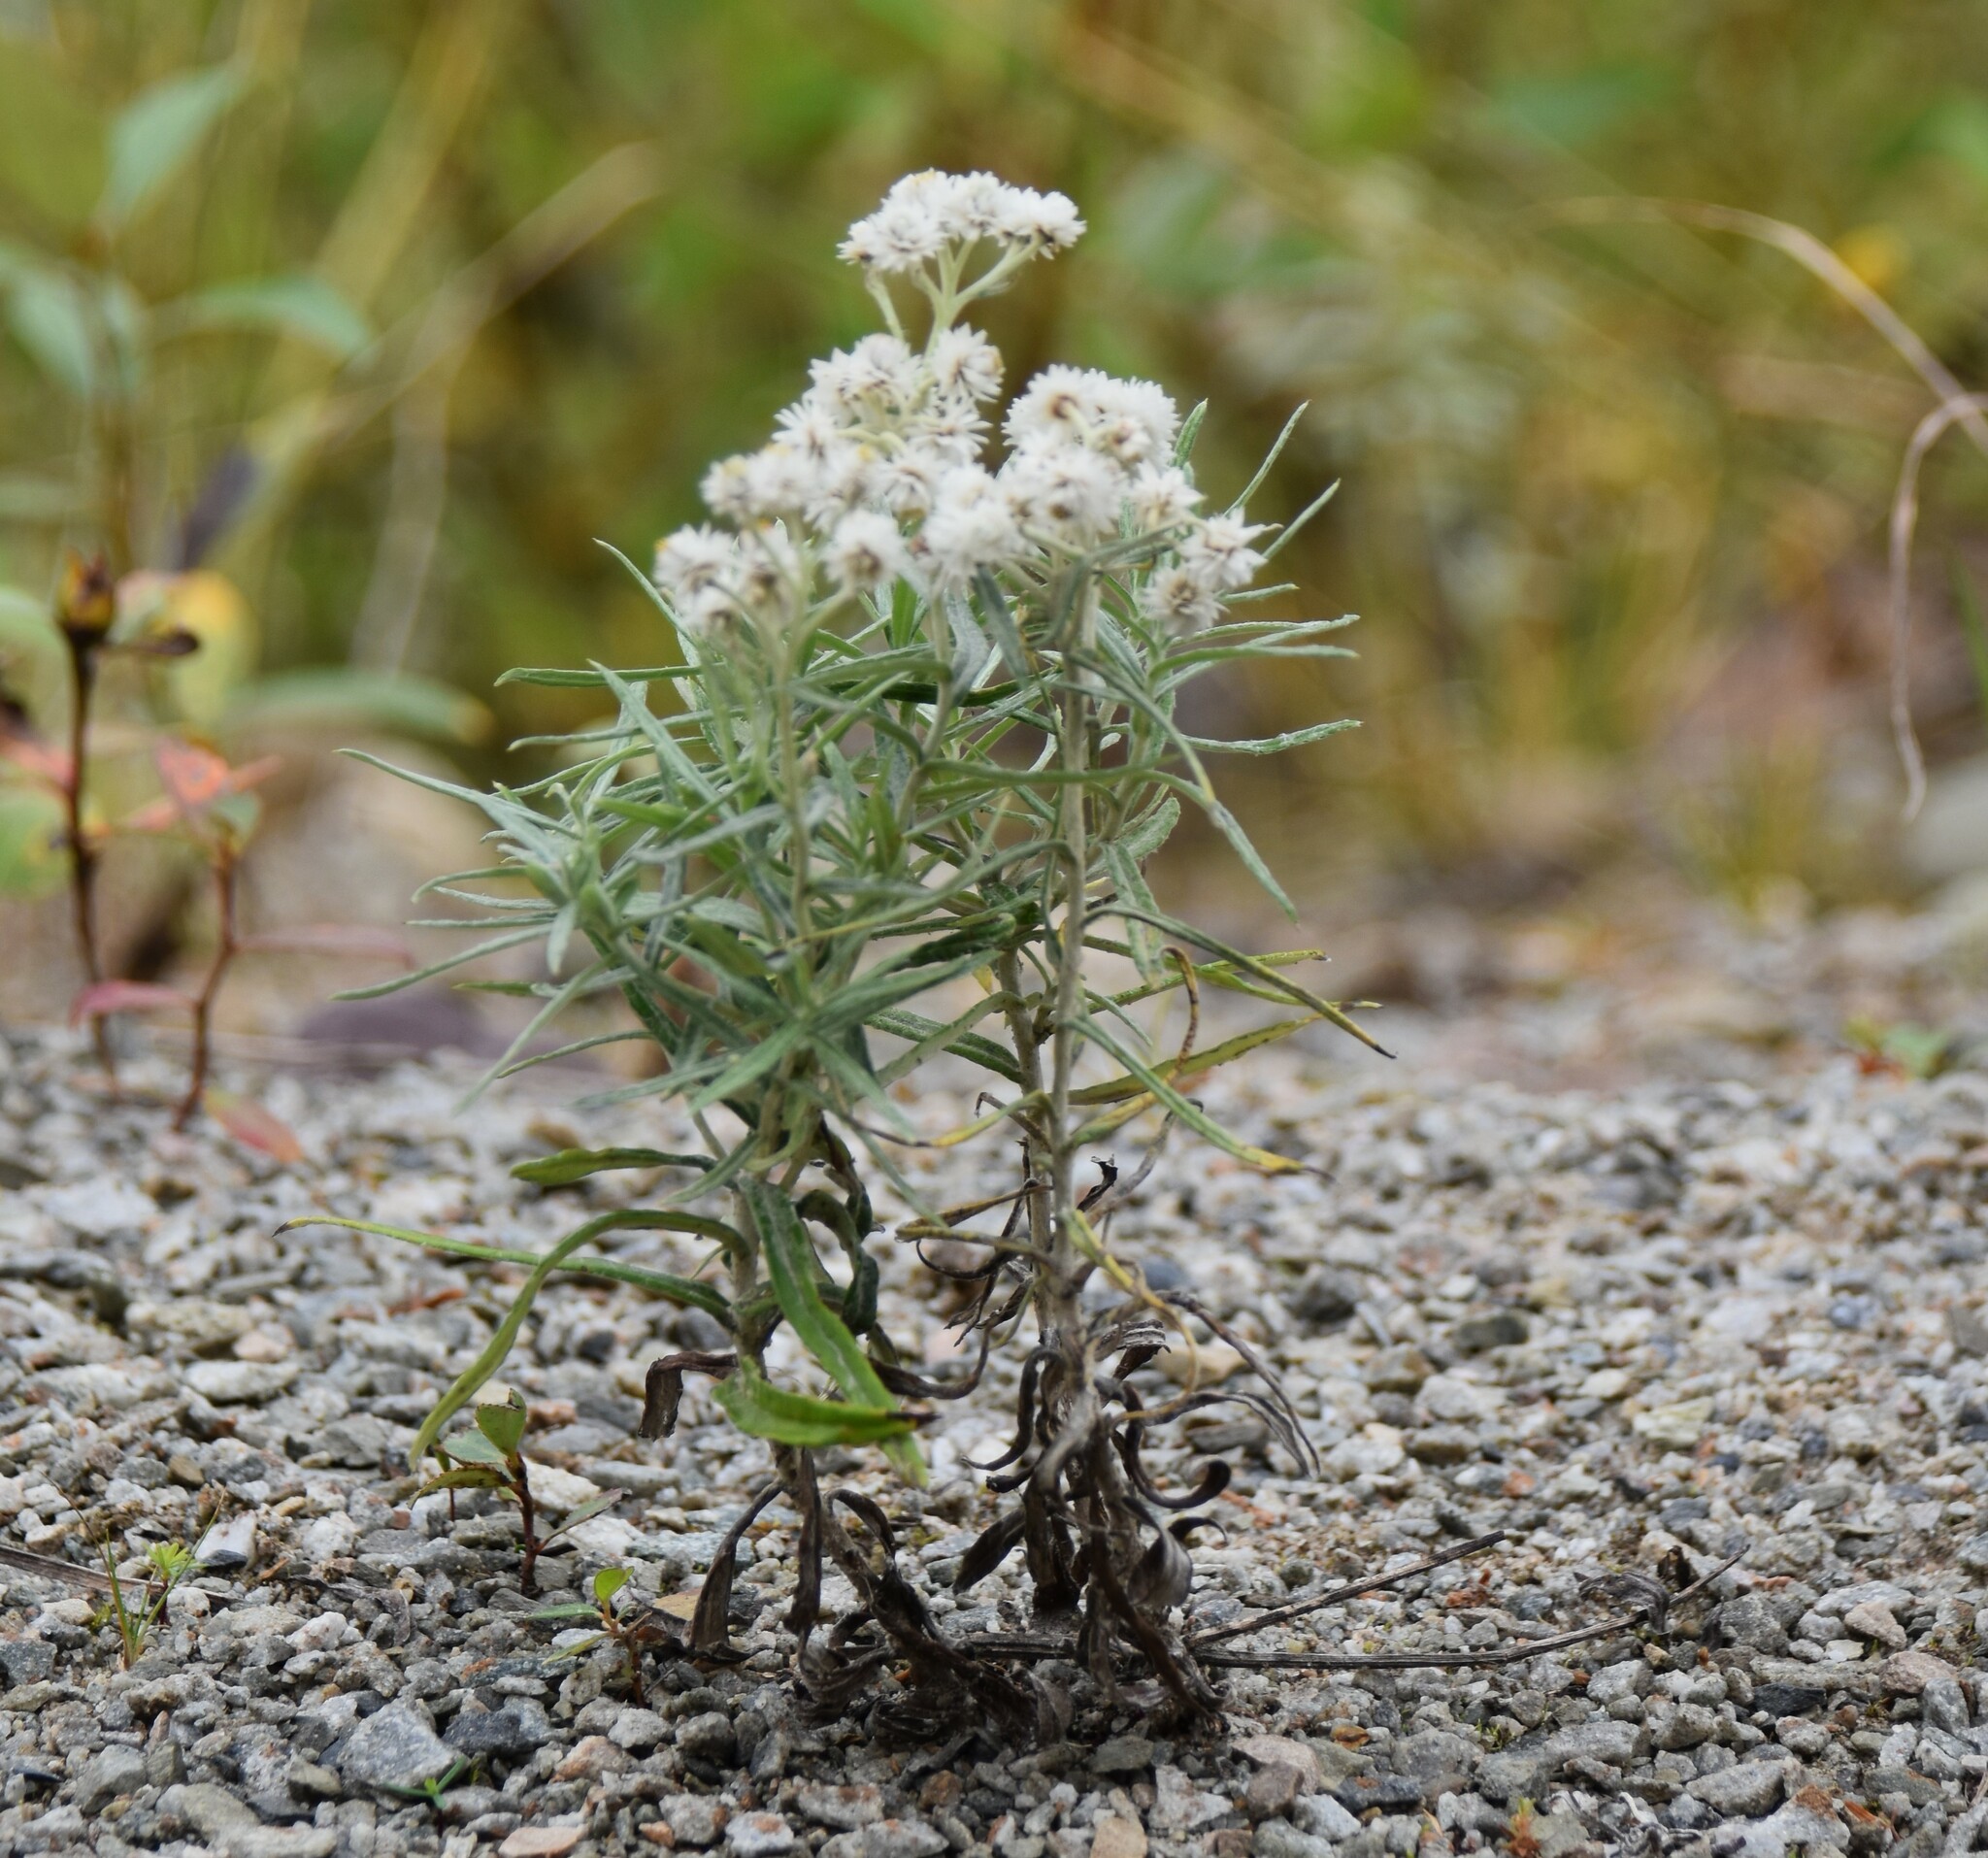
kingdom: Plantae
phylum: Tracheophyta
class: Magnoliopsida
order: Asterales
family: Asteraceae
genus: Anaphalis
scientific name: Anaphalis margaritacea
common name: Pearly everlasting
